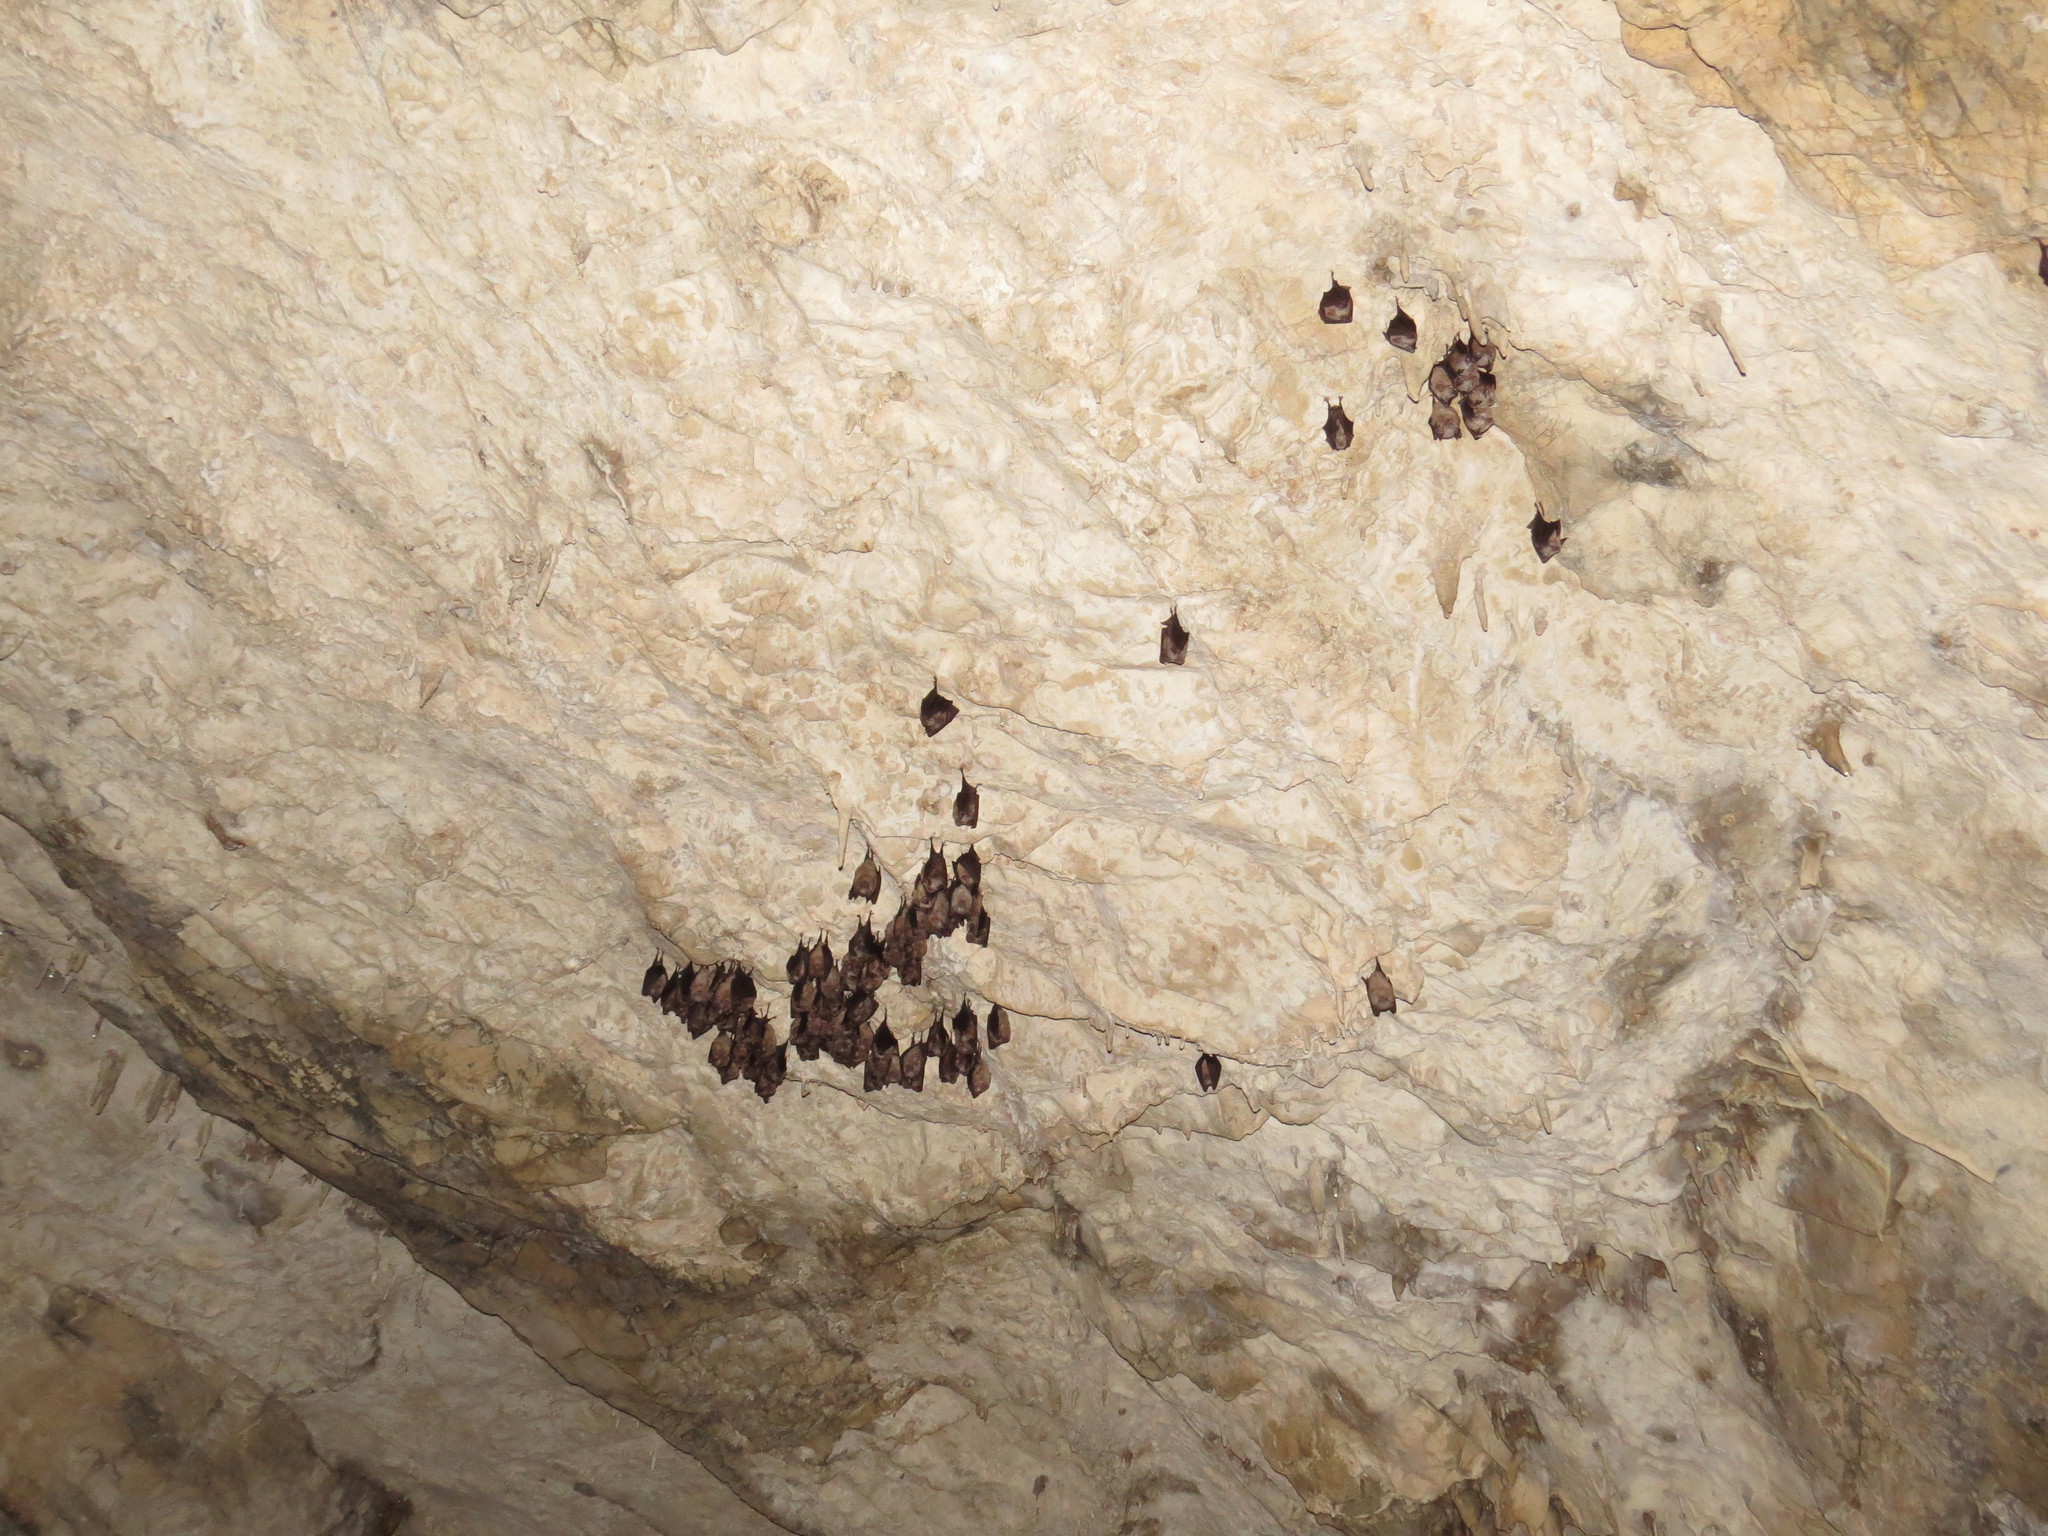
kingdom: Animalia
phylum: Chordata
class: Mammalia
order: Chiroptera
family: Rhinolophidae
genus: Rhinolophus
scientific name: Rhinolophus ferrumequinum
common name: Greater horseshoe bat
